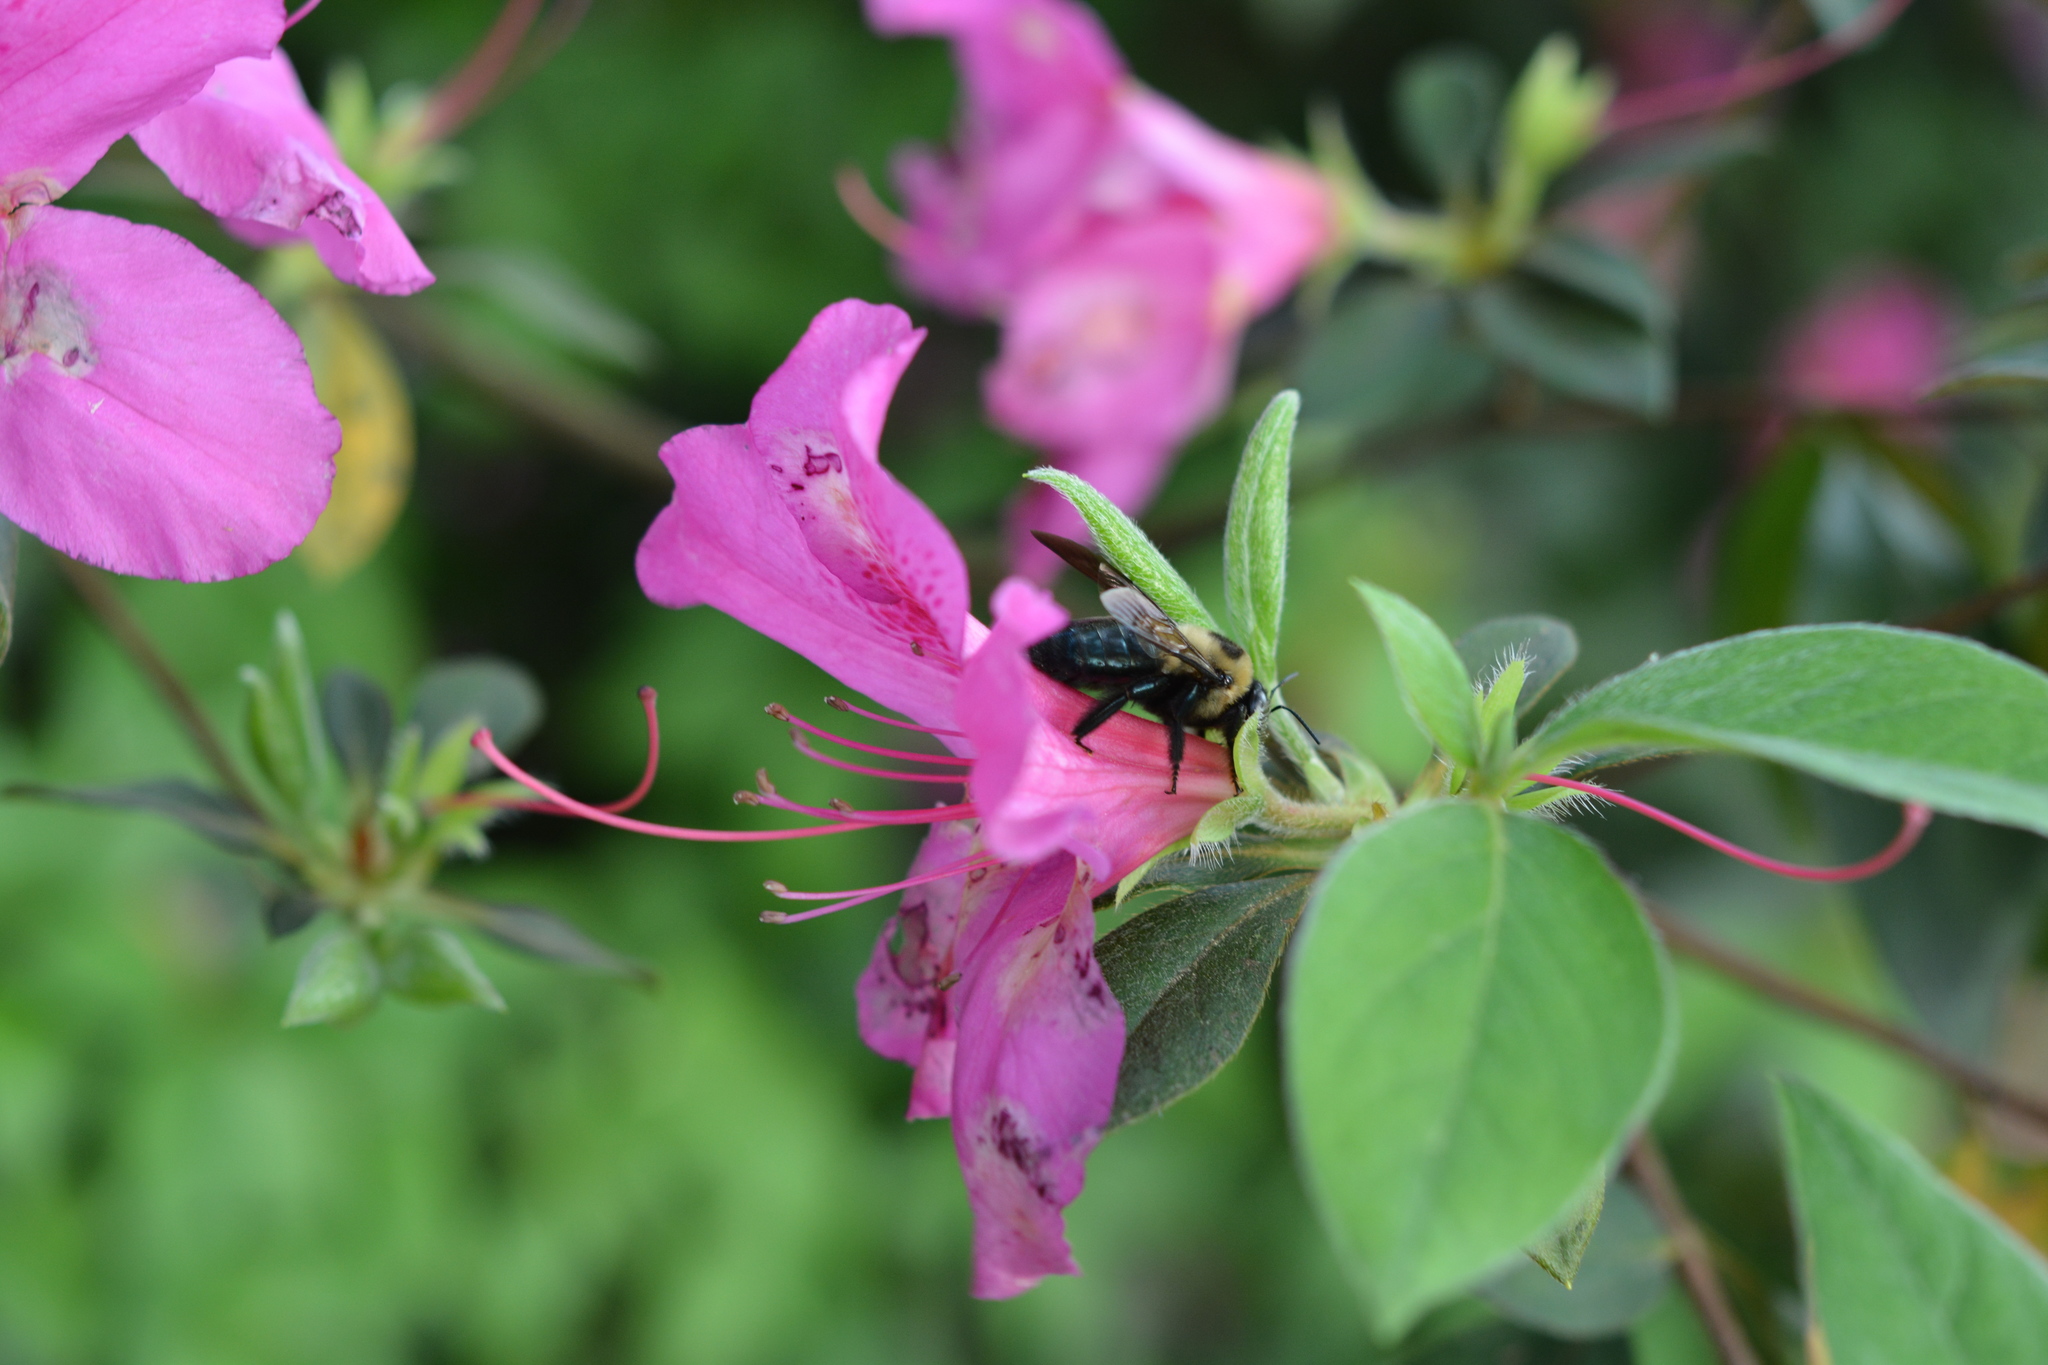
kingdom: Animalia
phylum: Arthropoda
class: Insecta
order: Hymenoptera
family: Apidae
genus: Xylocopa
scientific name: Xylocopa virginica
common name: Carpenter bee
